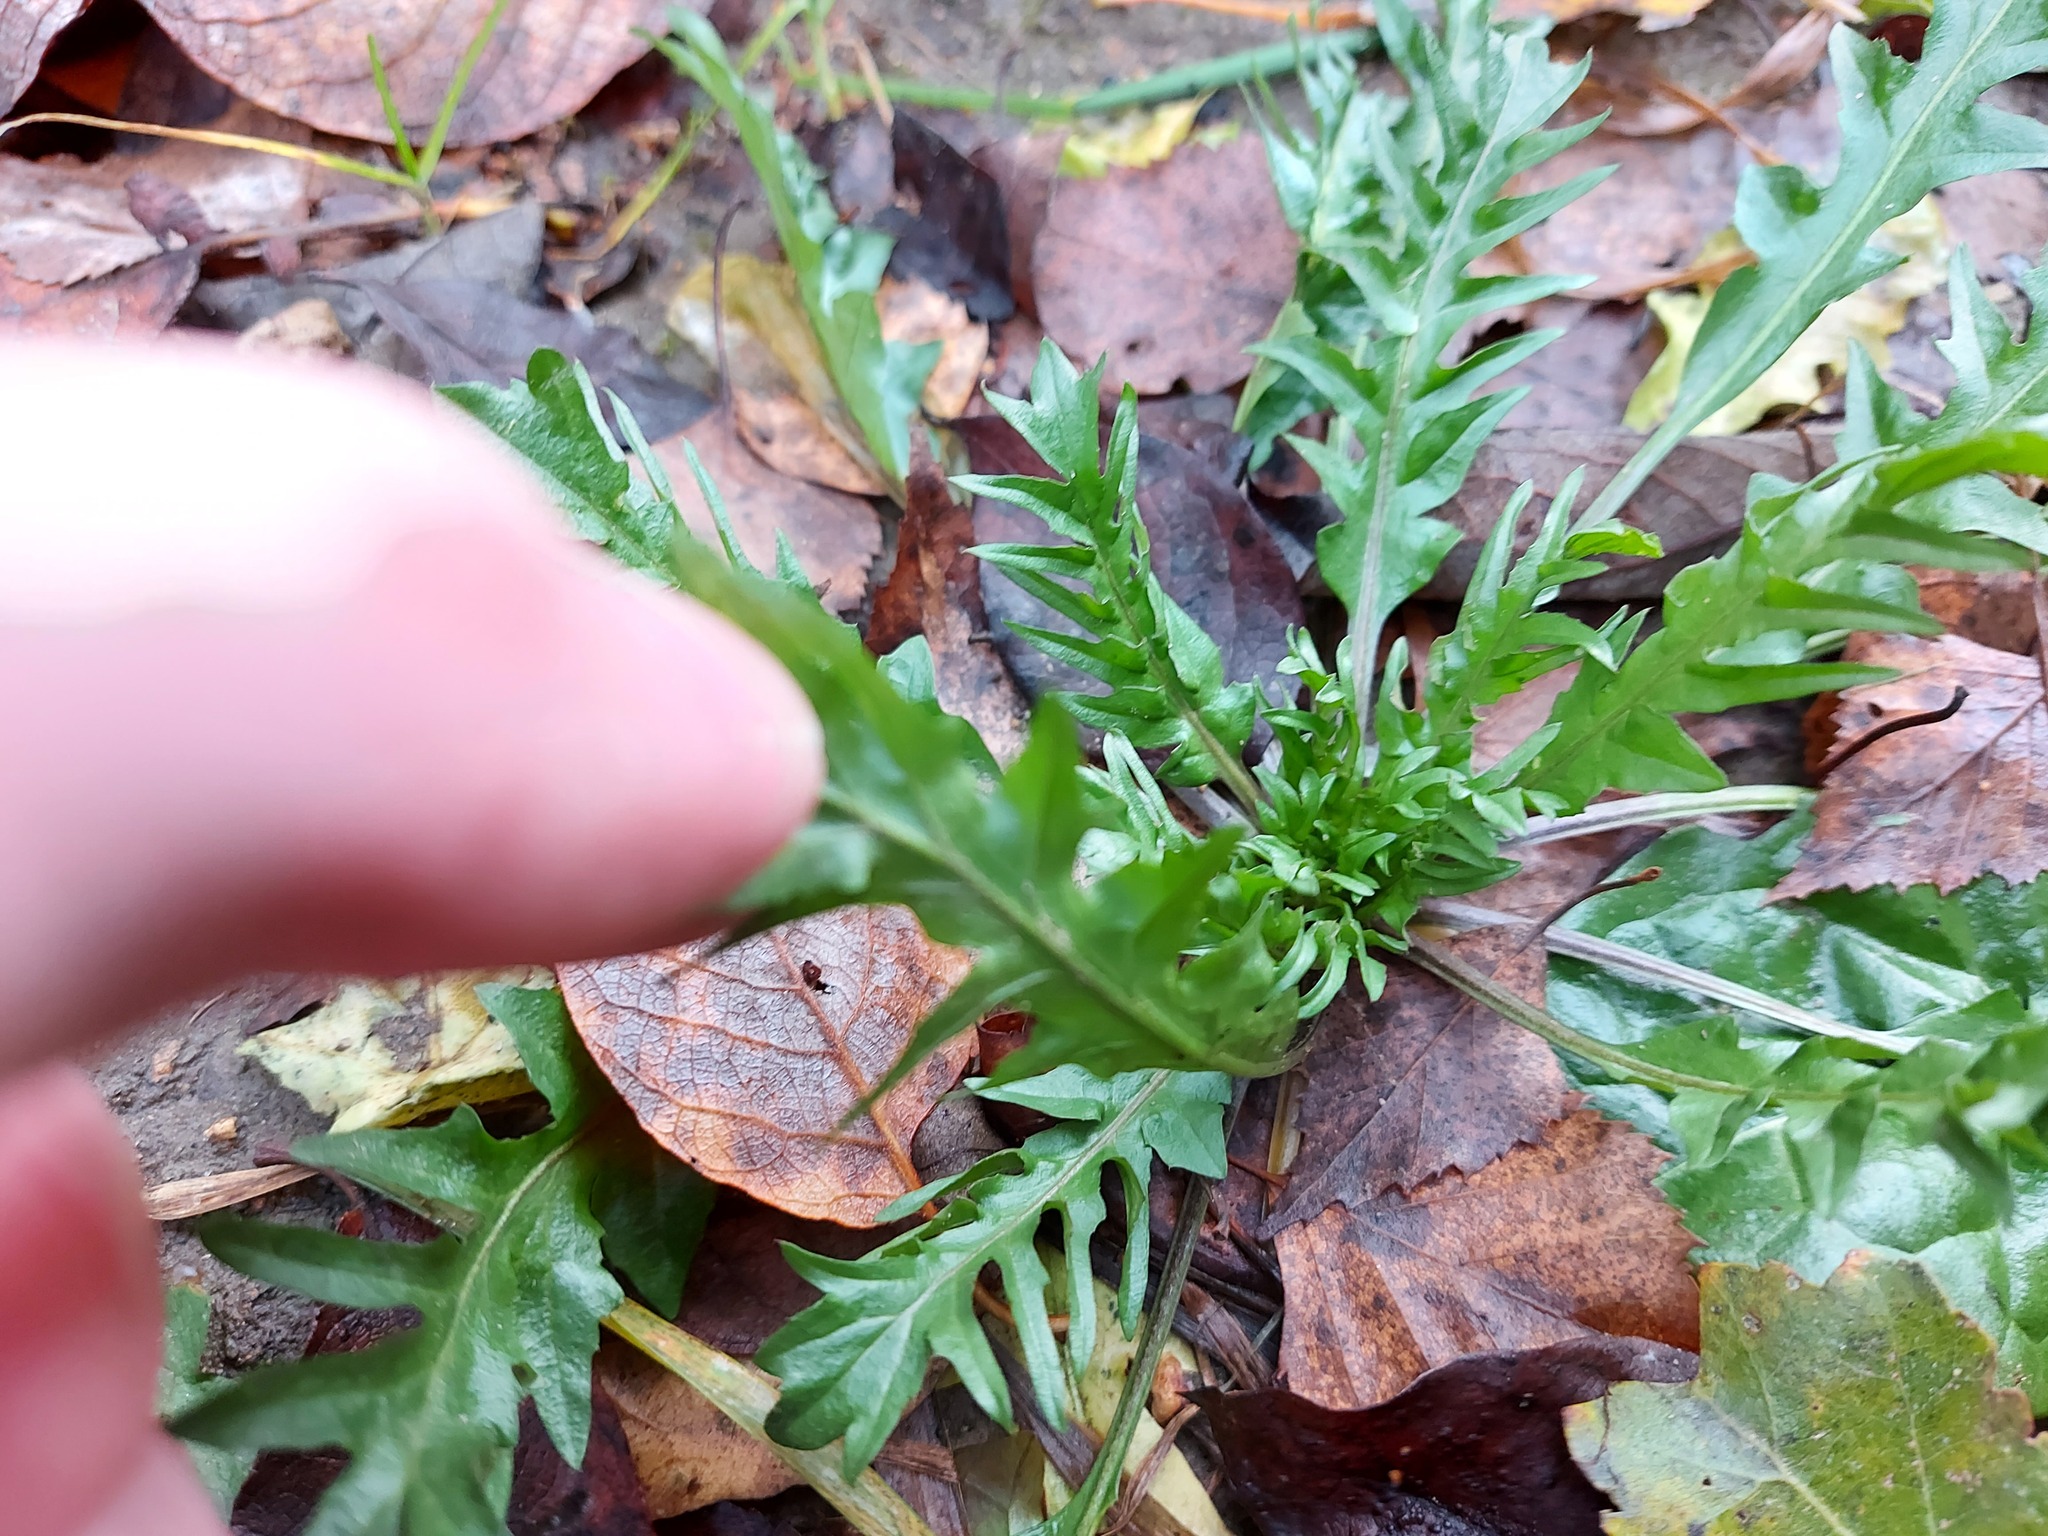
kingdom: Plantae
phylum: Tracheophyta
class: Magnoliopsida
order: Brassicales
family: Brassicaceae
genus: Capsella
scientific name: Capsella bursa-pastoris
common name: Shepherd's purse
